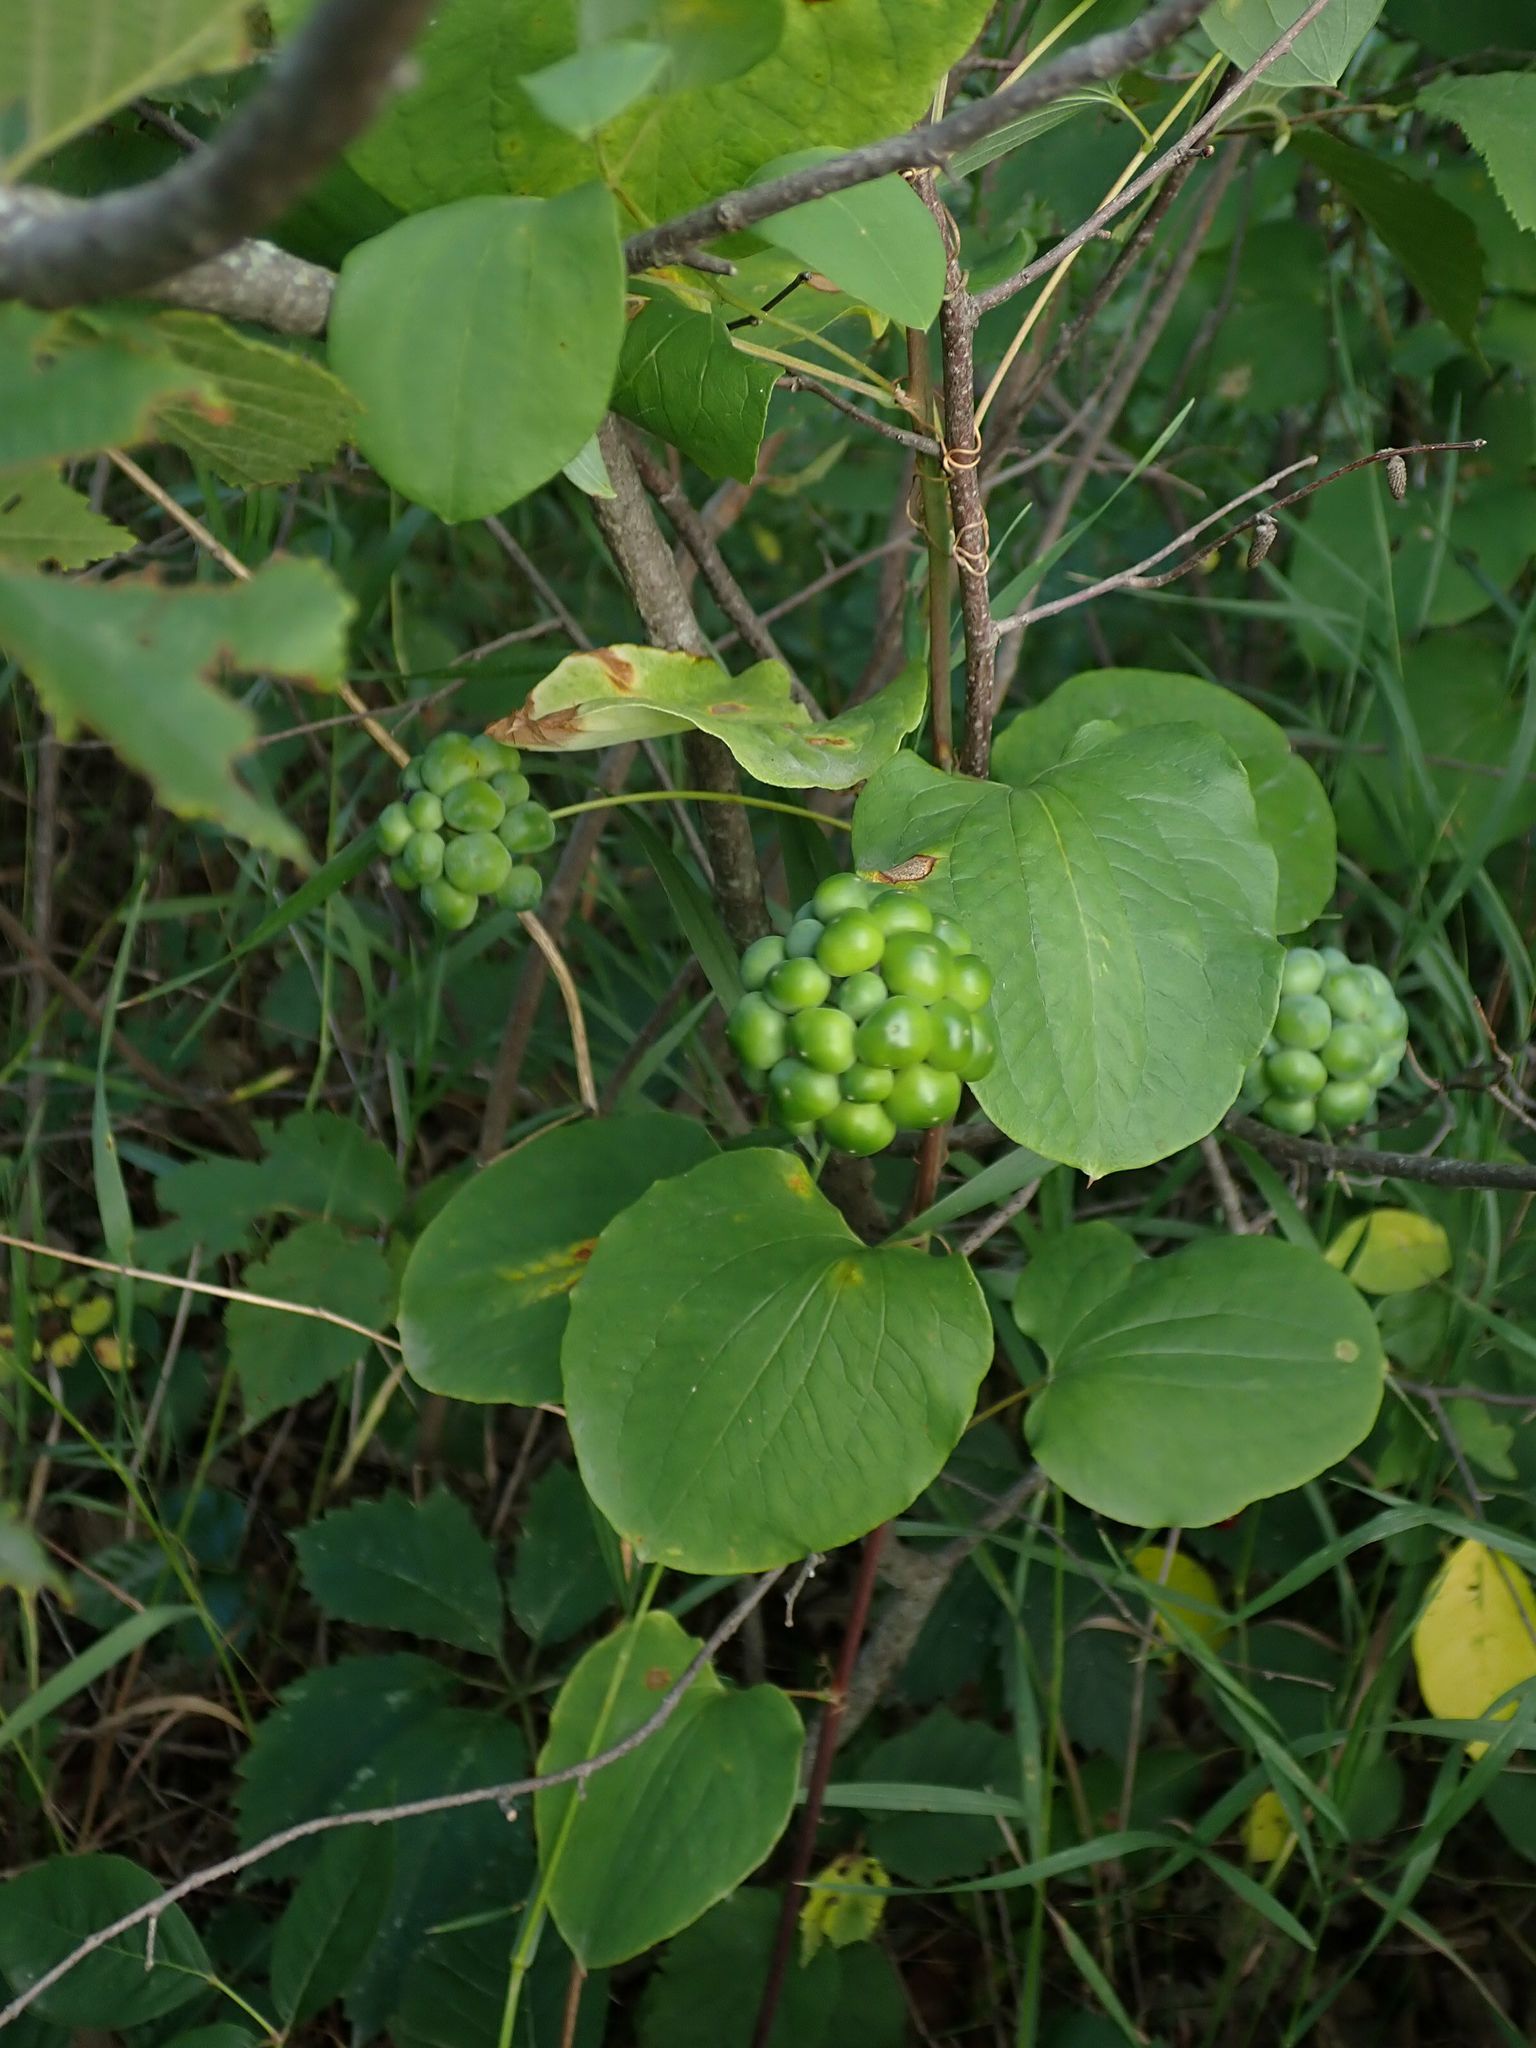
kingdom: Plantae
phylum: Tracheophyta
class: Liliopsida
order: Liliales
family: Smilacaceae
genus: Smilax
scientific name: Smilax lasioneura
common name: Blue ridge carrionflower
